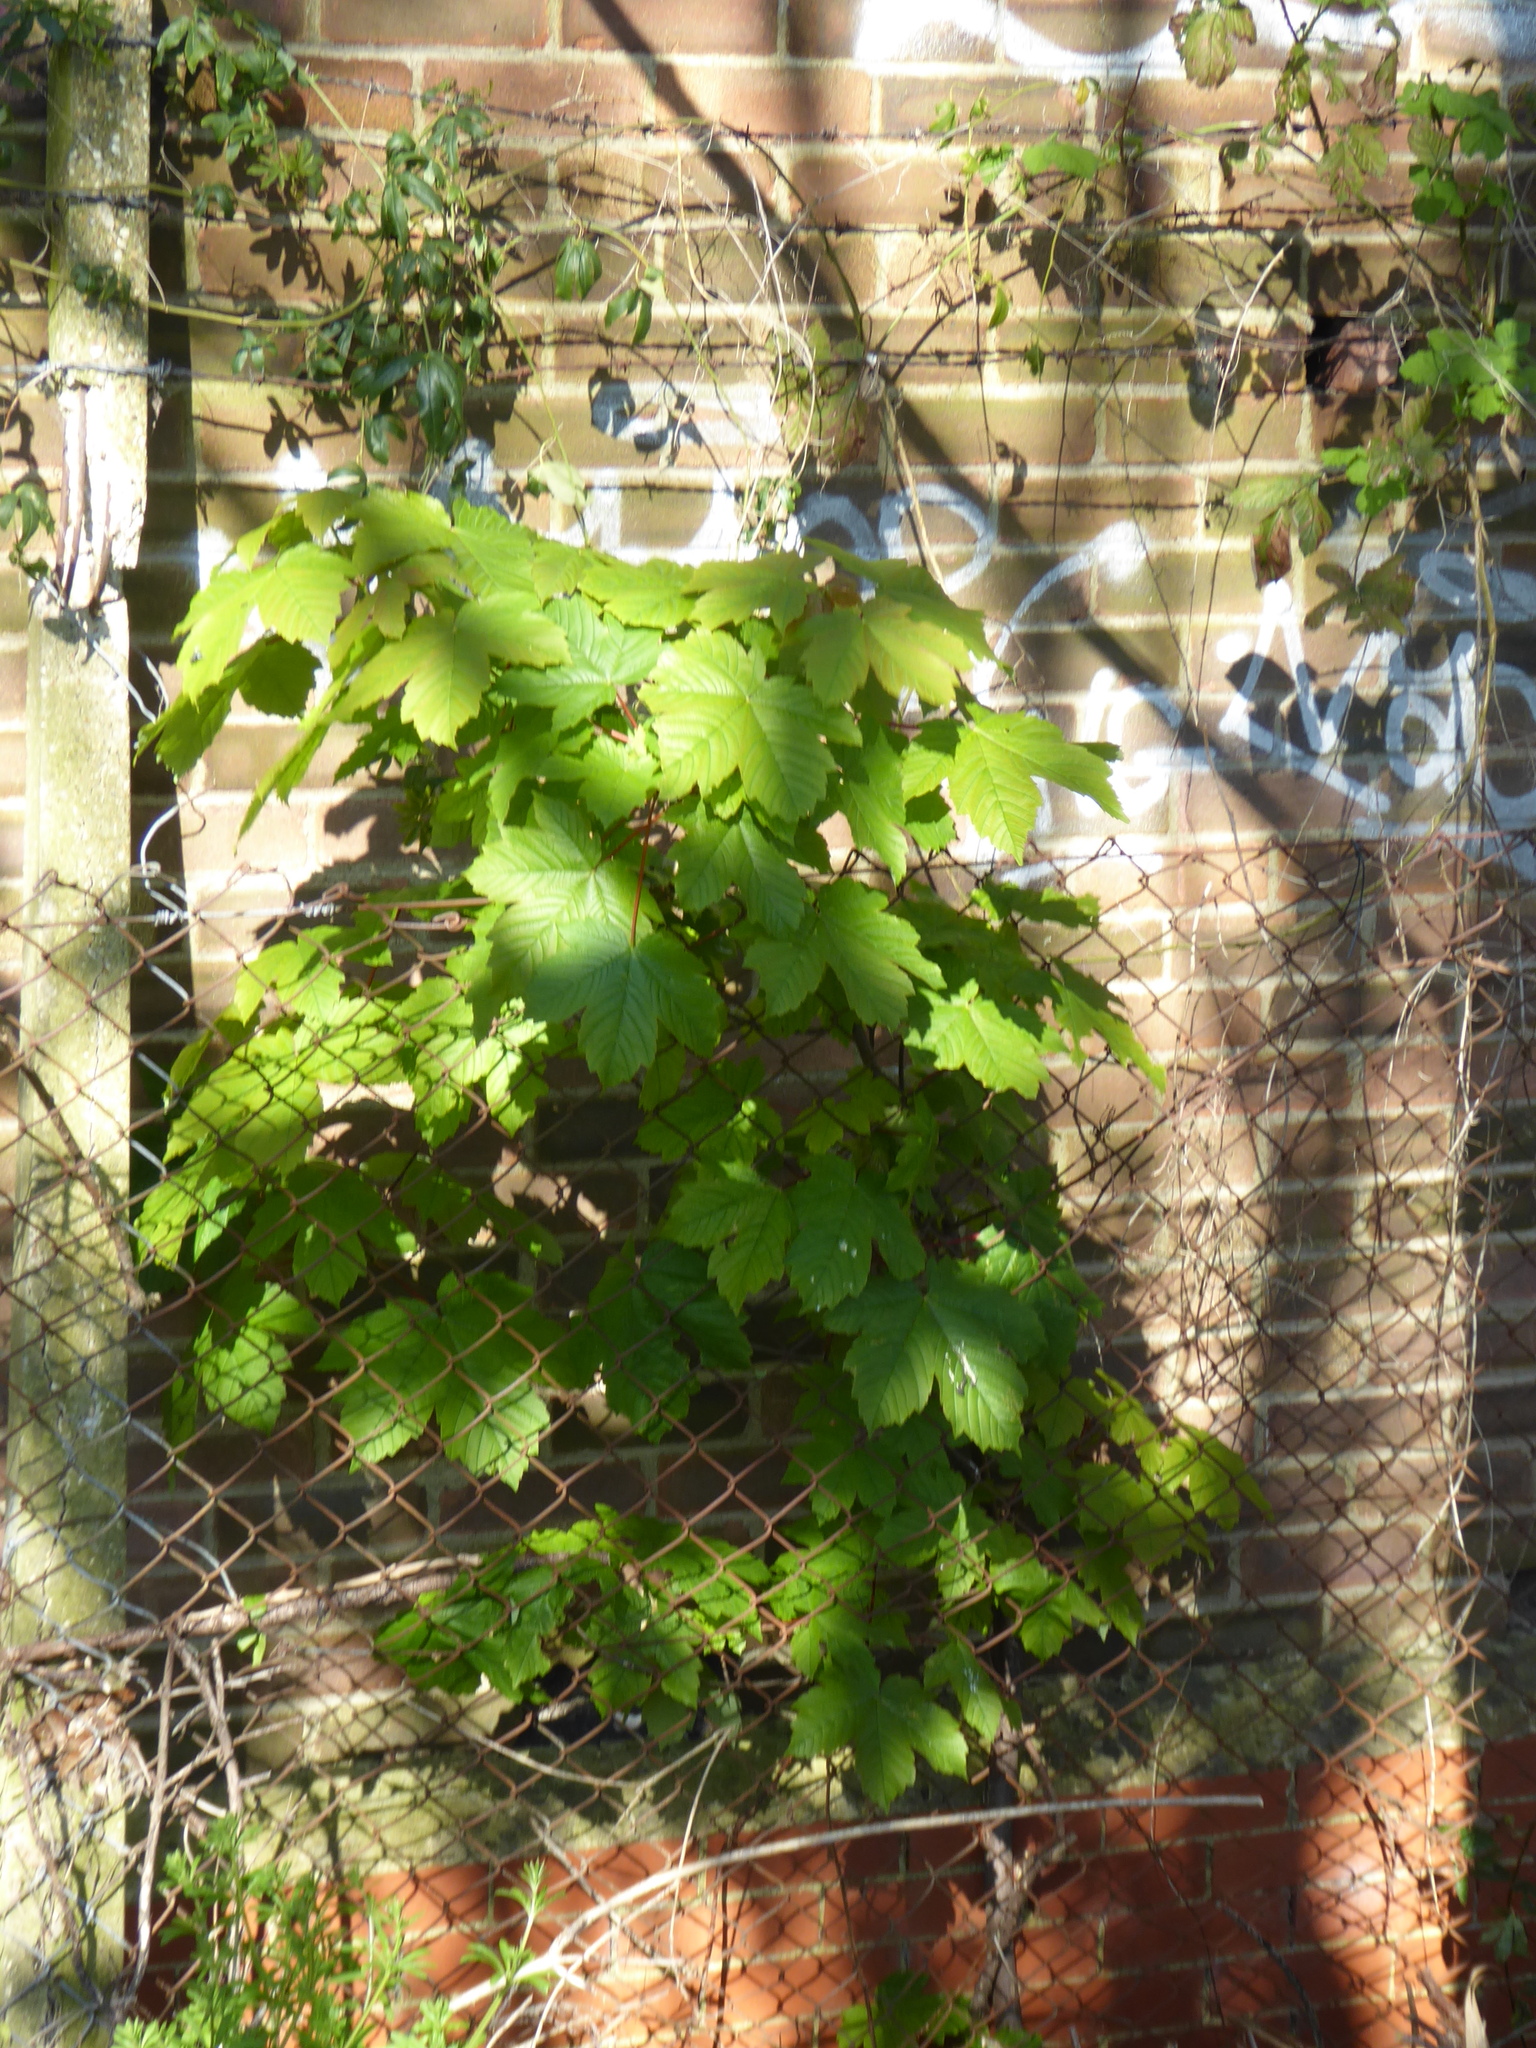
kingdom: Plantae
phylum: Tracheophyta
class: Magnoliopsida
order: Sapindales
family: Sapindaceae
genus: Acer
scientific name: Acer pseudoplatanus
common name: Sycamore
